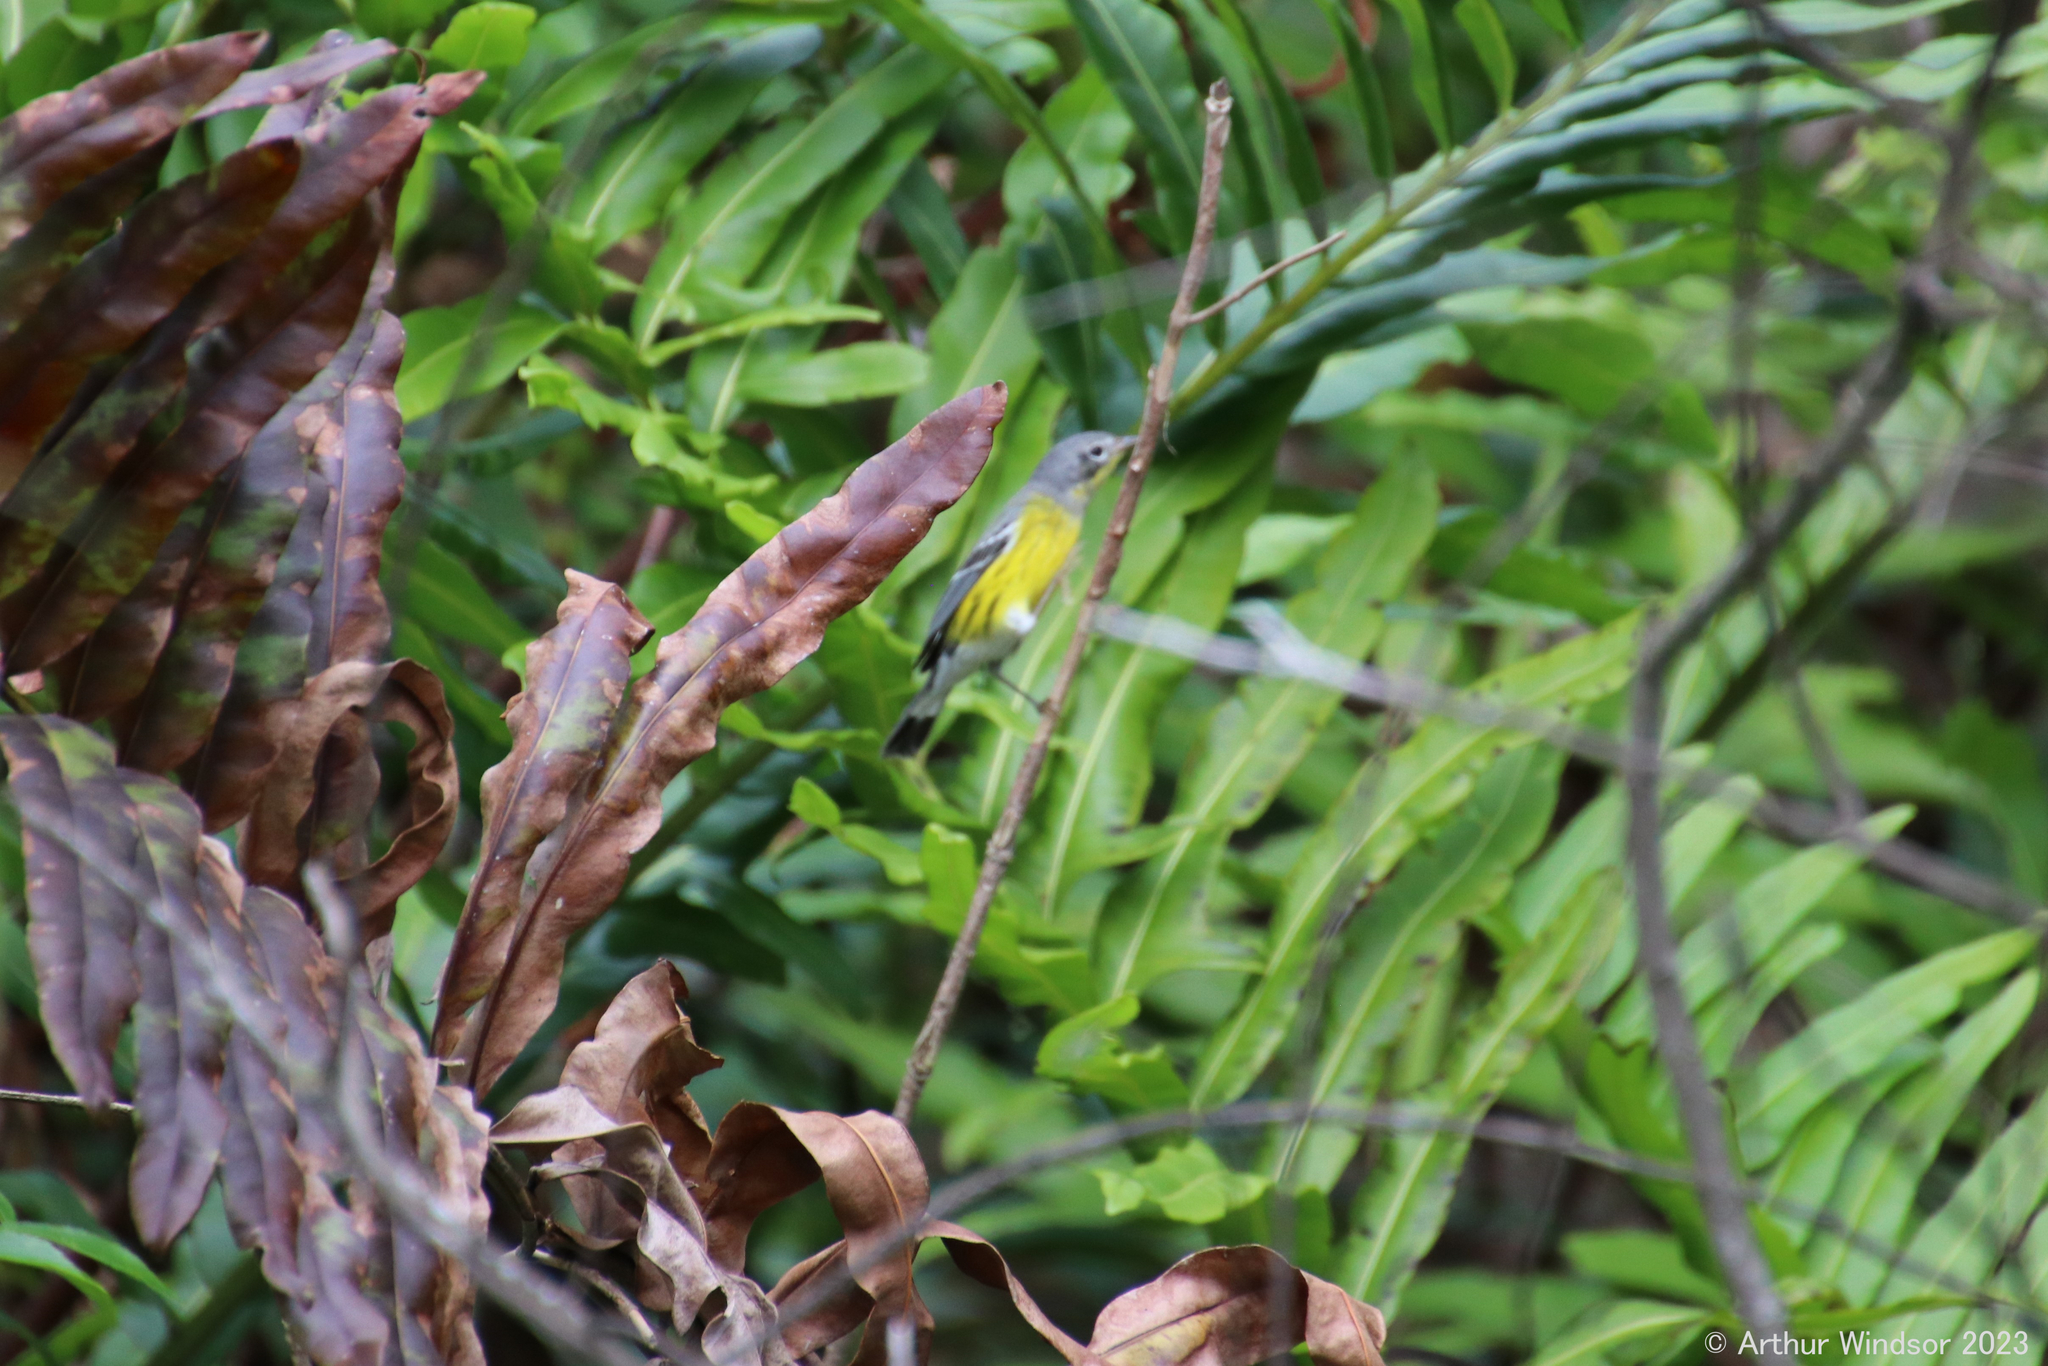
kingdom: Animalia
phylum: Chordata
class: Aves
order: Passeriformes
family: Parulidae
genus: Setophaga
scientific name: Setophaga magnolia
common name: Magnolia warbler
